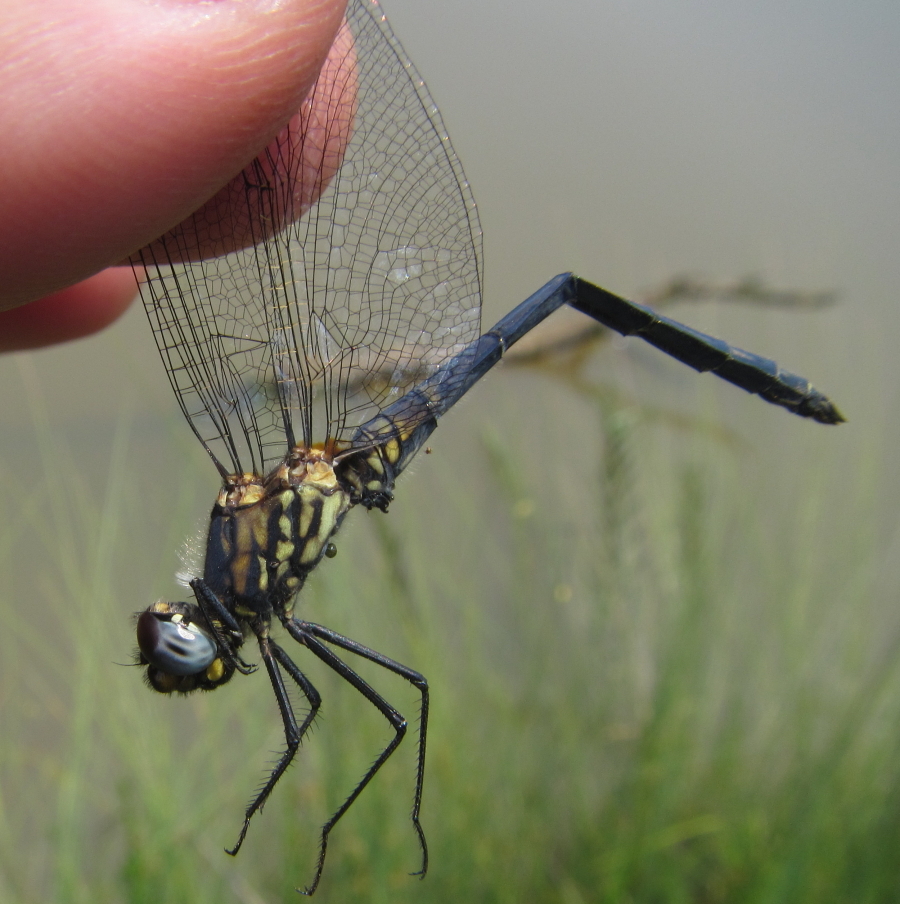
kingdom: Animalia
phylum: Arthropoda
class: Insecta
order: Odonata
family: Libellulidae
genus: Trithemis
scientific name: Trithemis dorsalis
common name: Highland dropwing
